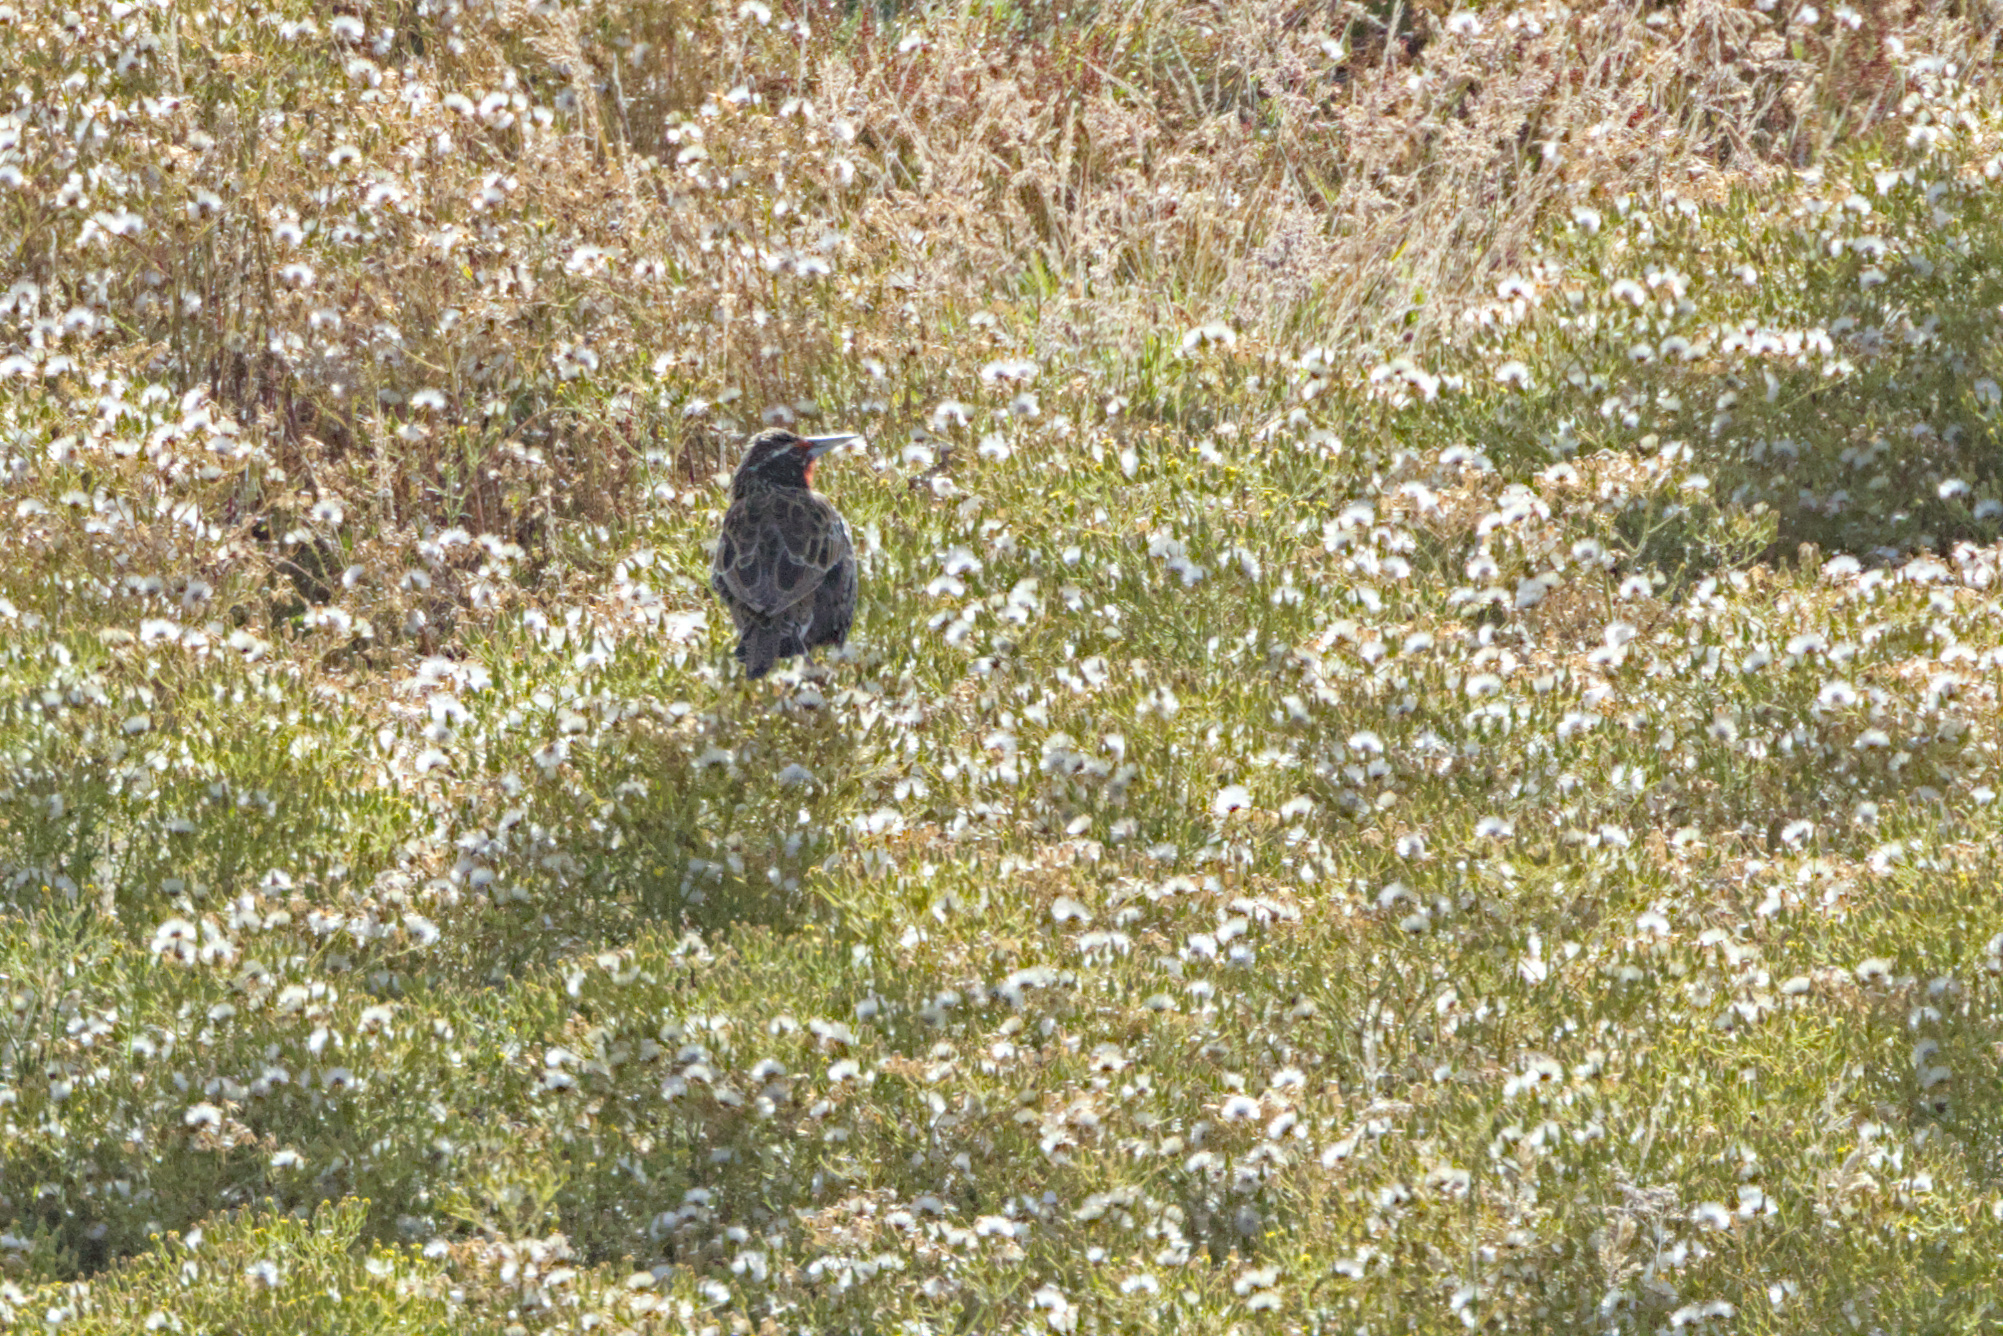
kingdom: Animalia
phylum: Chordata
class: Aves
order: Passeriformes
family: Icteridae
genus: Sturnella
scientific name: Sturnella loyca
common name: Long-tailed meadowlark
